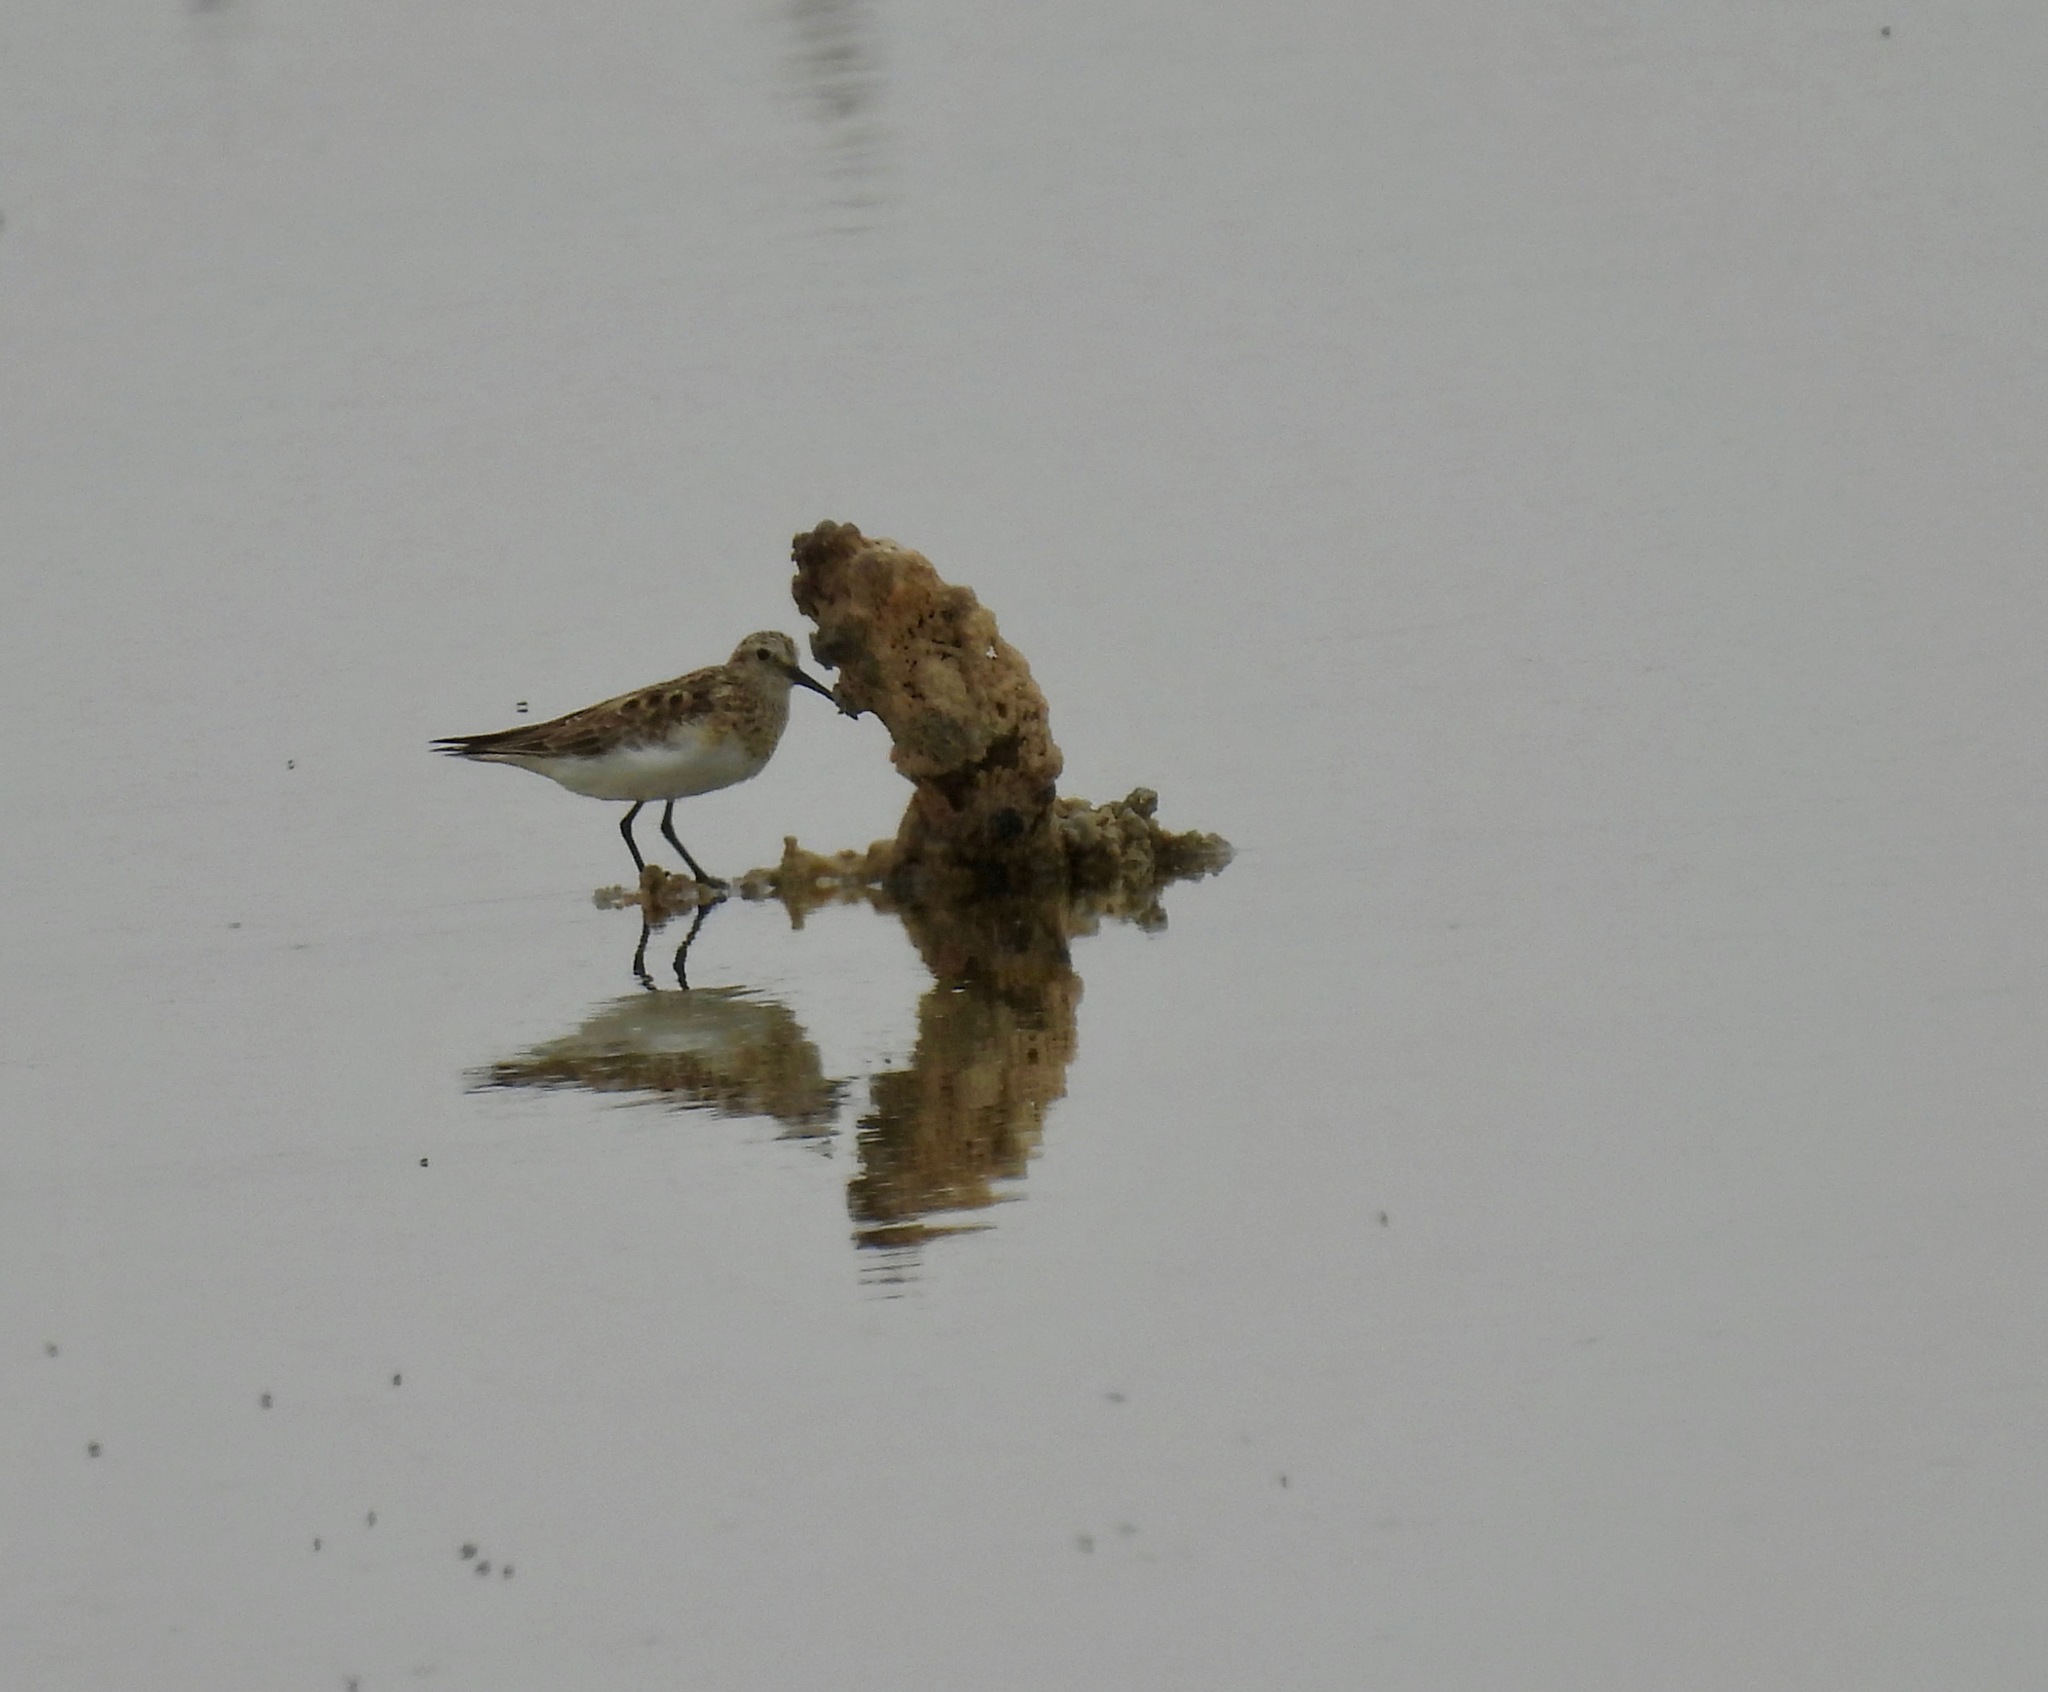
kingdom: Animalia
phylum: Chordata
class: Aves
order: Charadriiformes
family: Scolopacidae
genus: Calidris
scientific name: Calidris bairdii
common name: Baird's sandpiper
